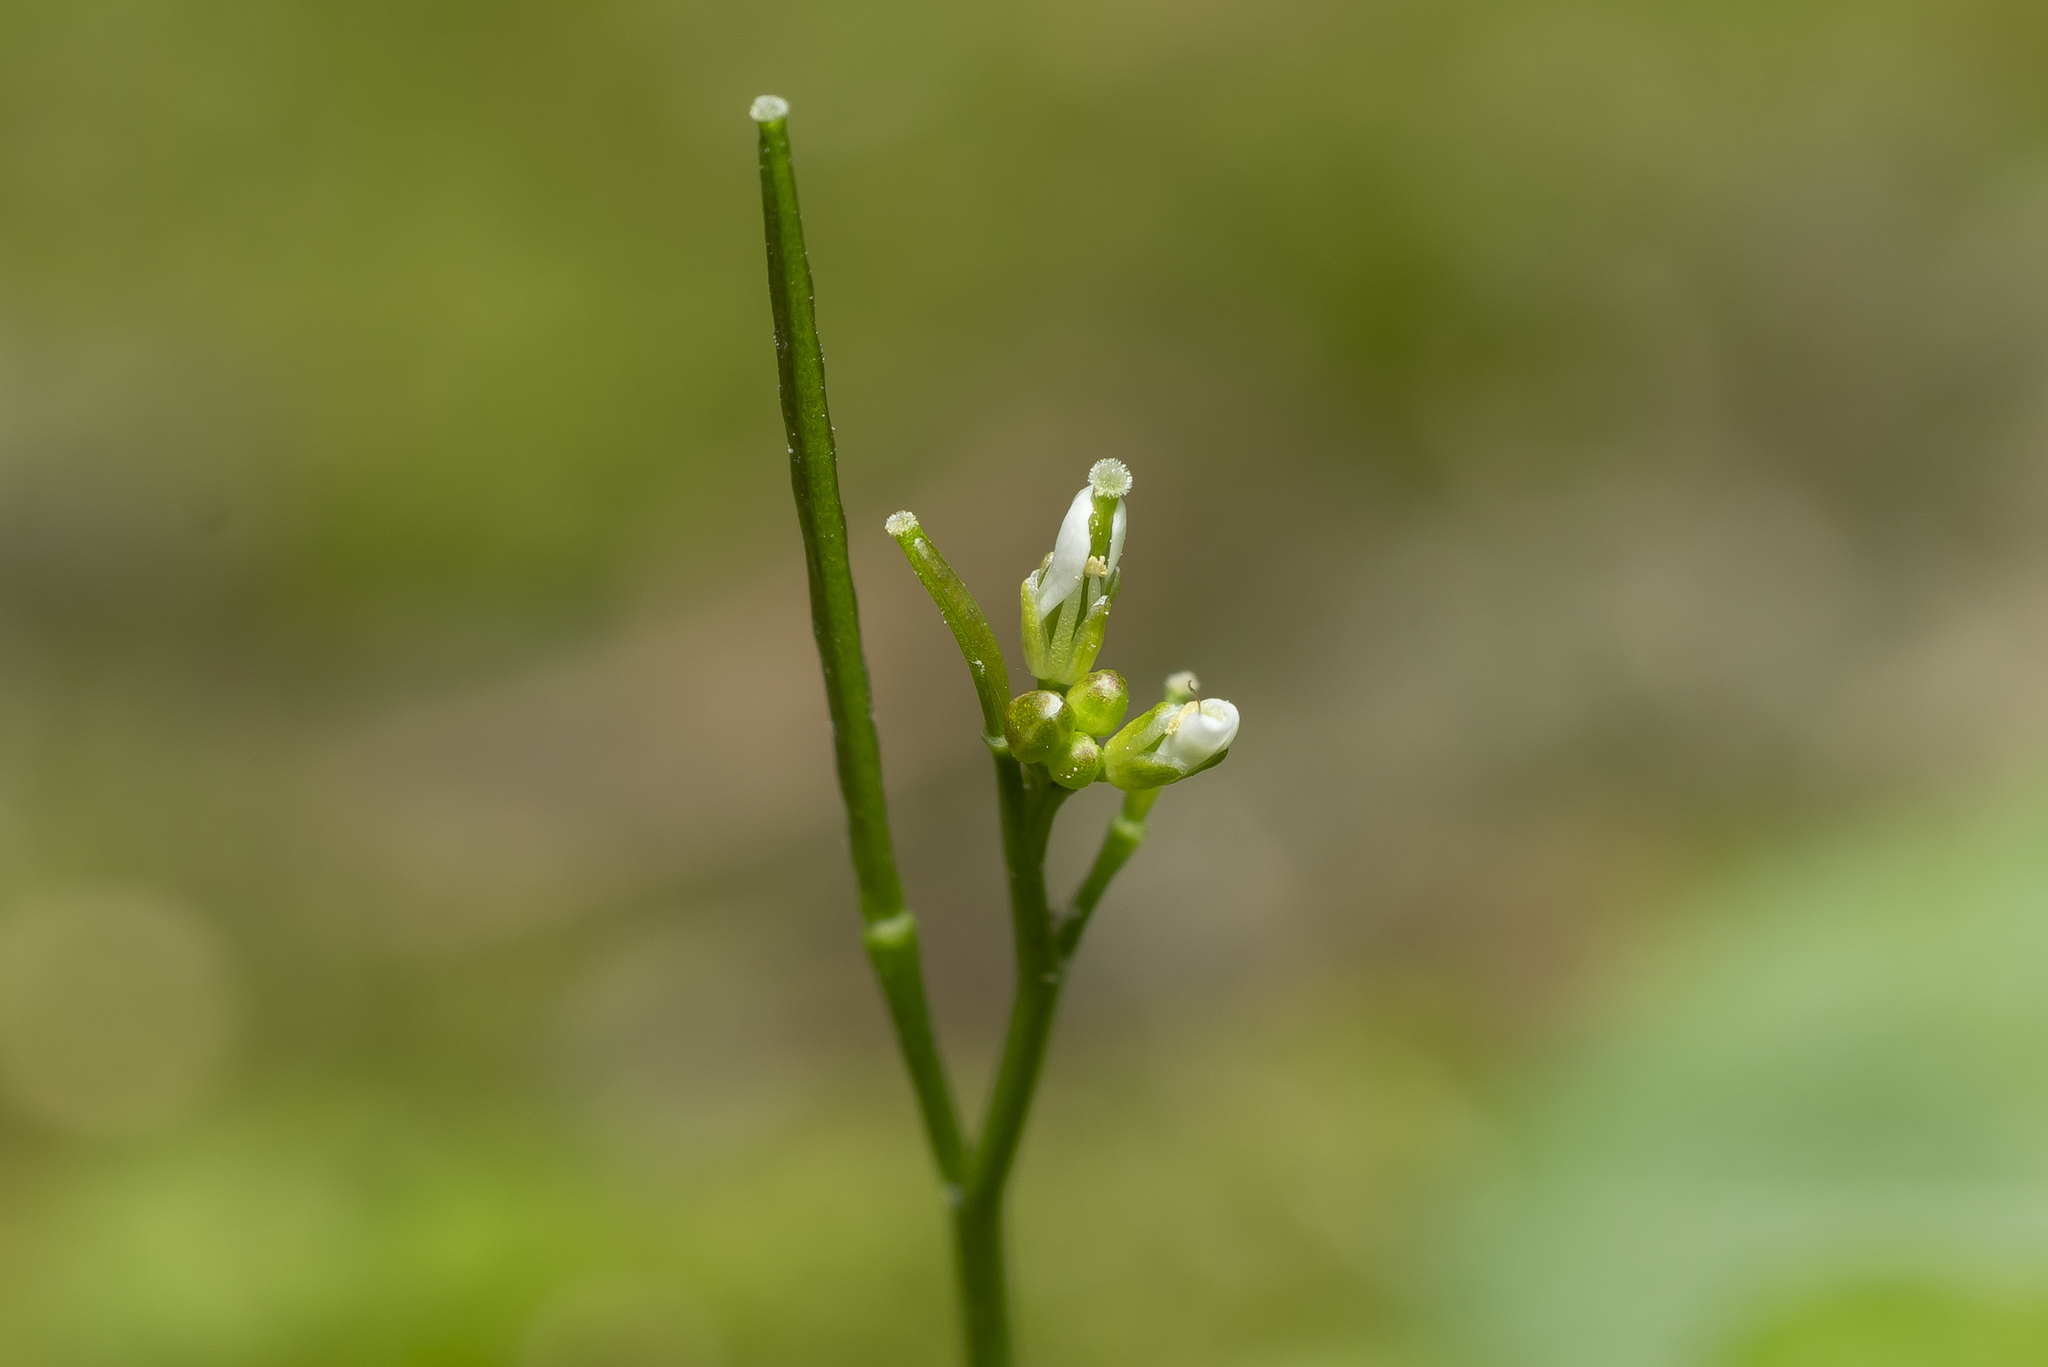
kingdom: Plantae
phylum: Tracheophyta
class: Magnoliopsida
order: Brassicales
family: Brassicaceae
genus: Cardamine
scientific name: Cardamine hirsuta
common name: Hairy bittercress
